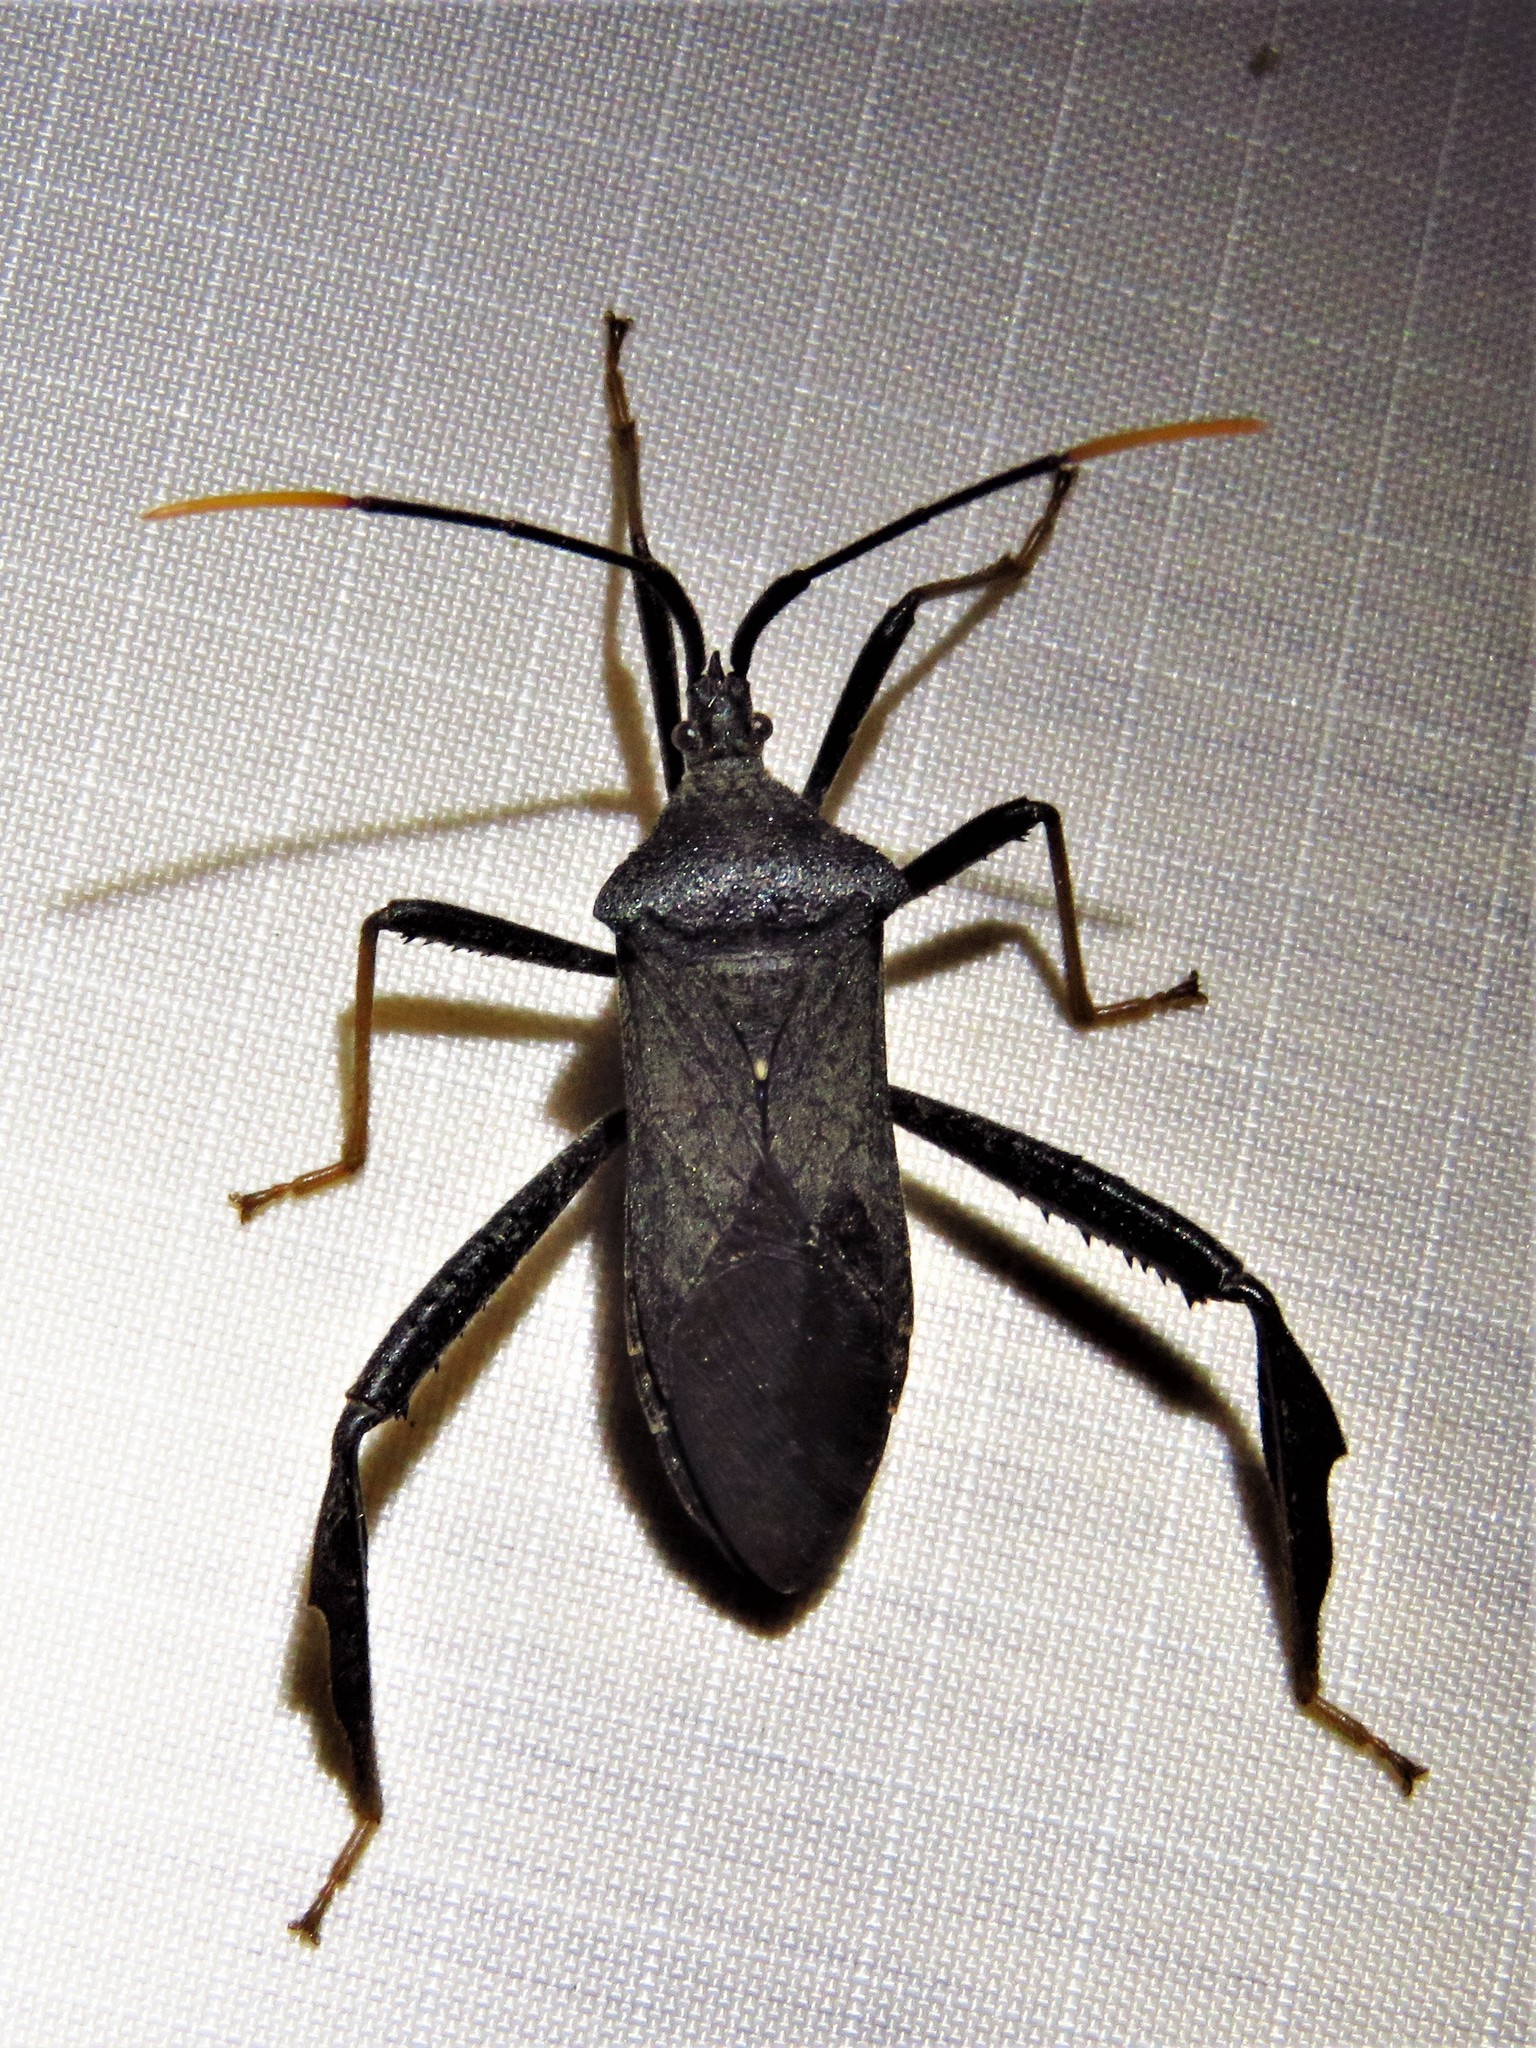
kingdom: Animalia
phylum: Arthropoda
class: Insecta
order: Hemiptera
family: Coreidae
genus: Acanthocephala
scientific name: Acanthocephala terminalis
